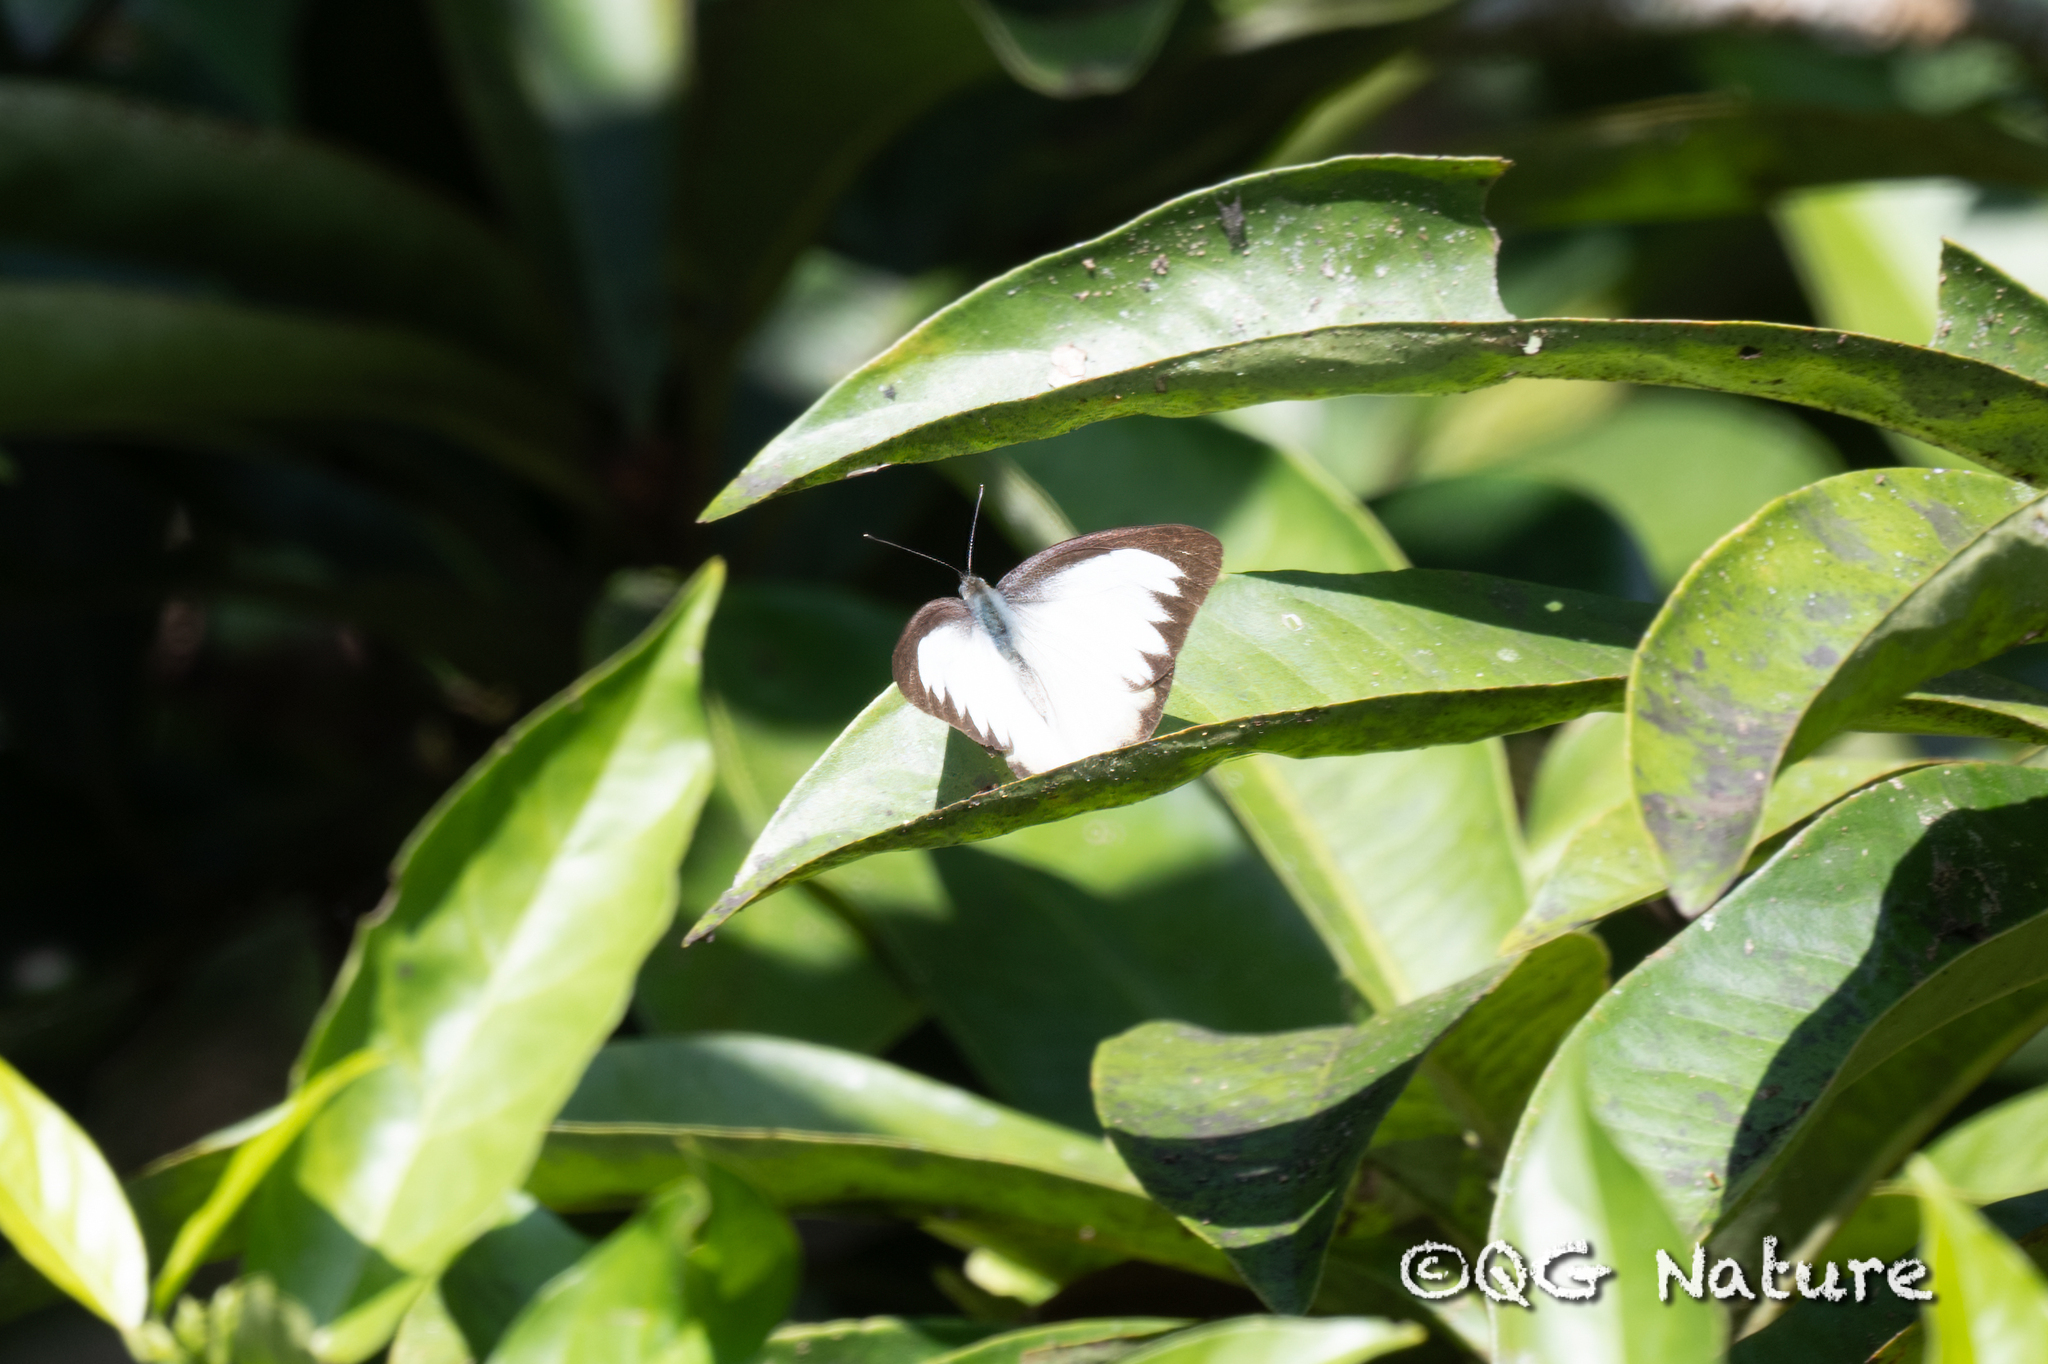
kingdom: Animalia
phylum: Arthropoda
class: Insecta
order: Lepidoptera
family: Pieridae
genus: Appias
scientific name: Appias lyncida
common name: Chocolate albatross
